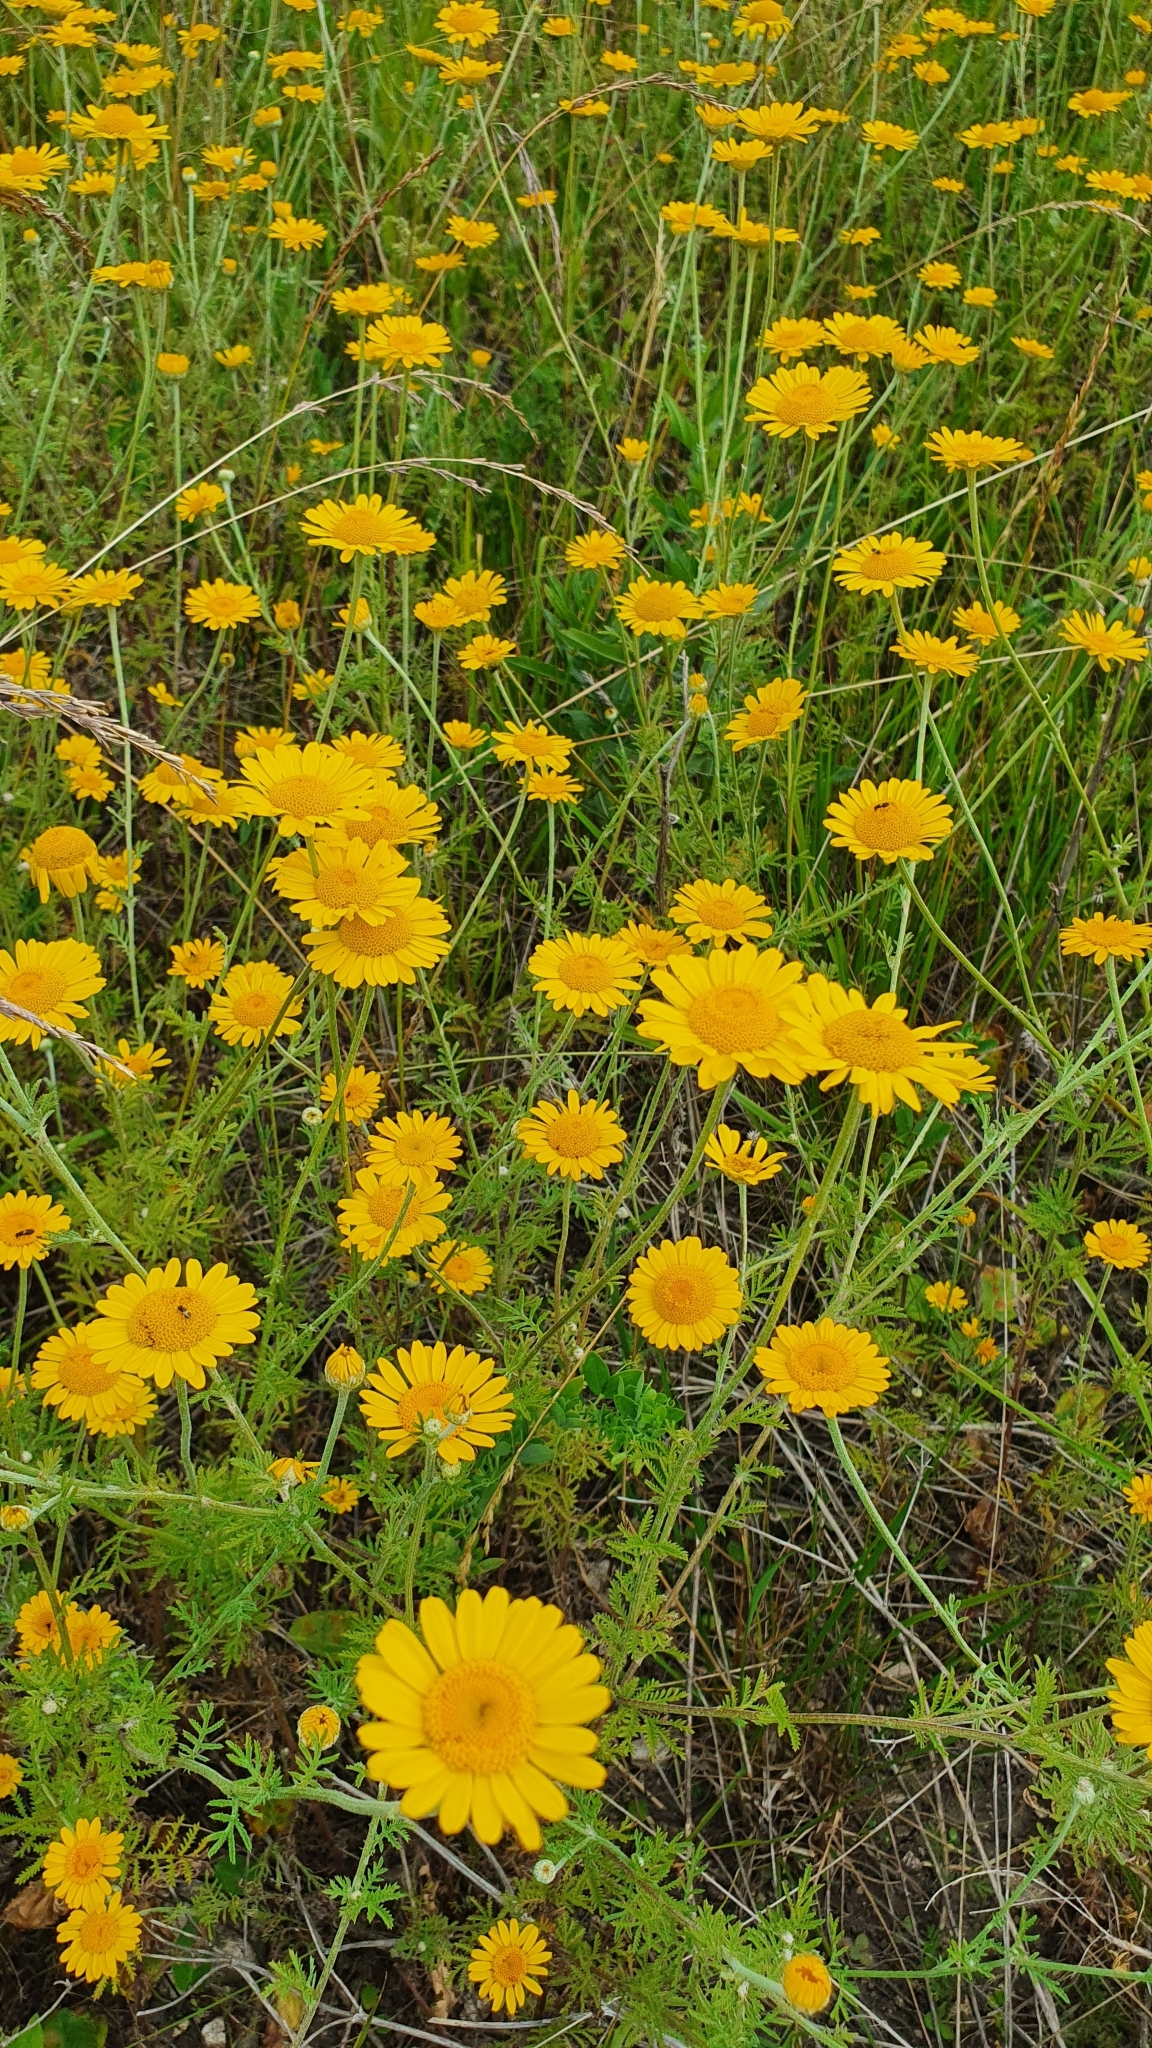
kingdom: Plantae
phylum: Tracheophyta
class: Magnoliopsida
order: Asterales
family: Asteraceae
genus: Cota
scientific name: Cota tinctoria
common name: Golden chamomile
